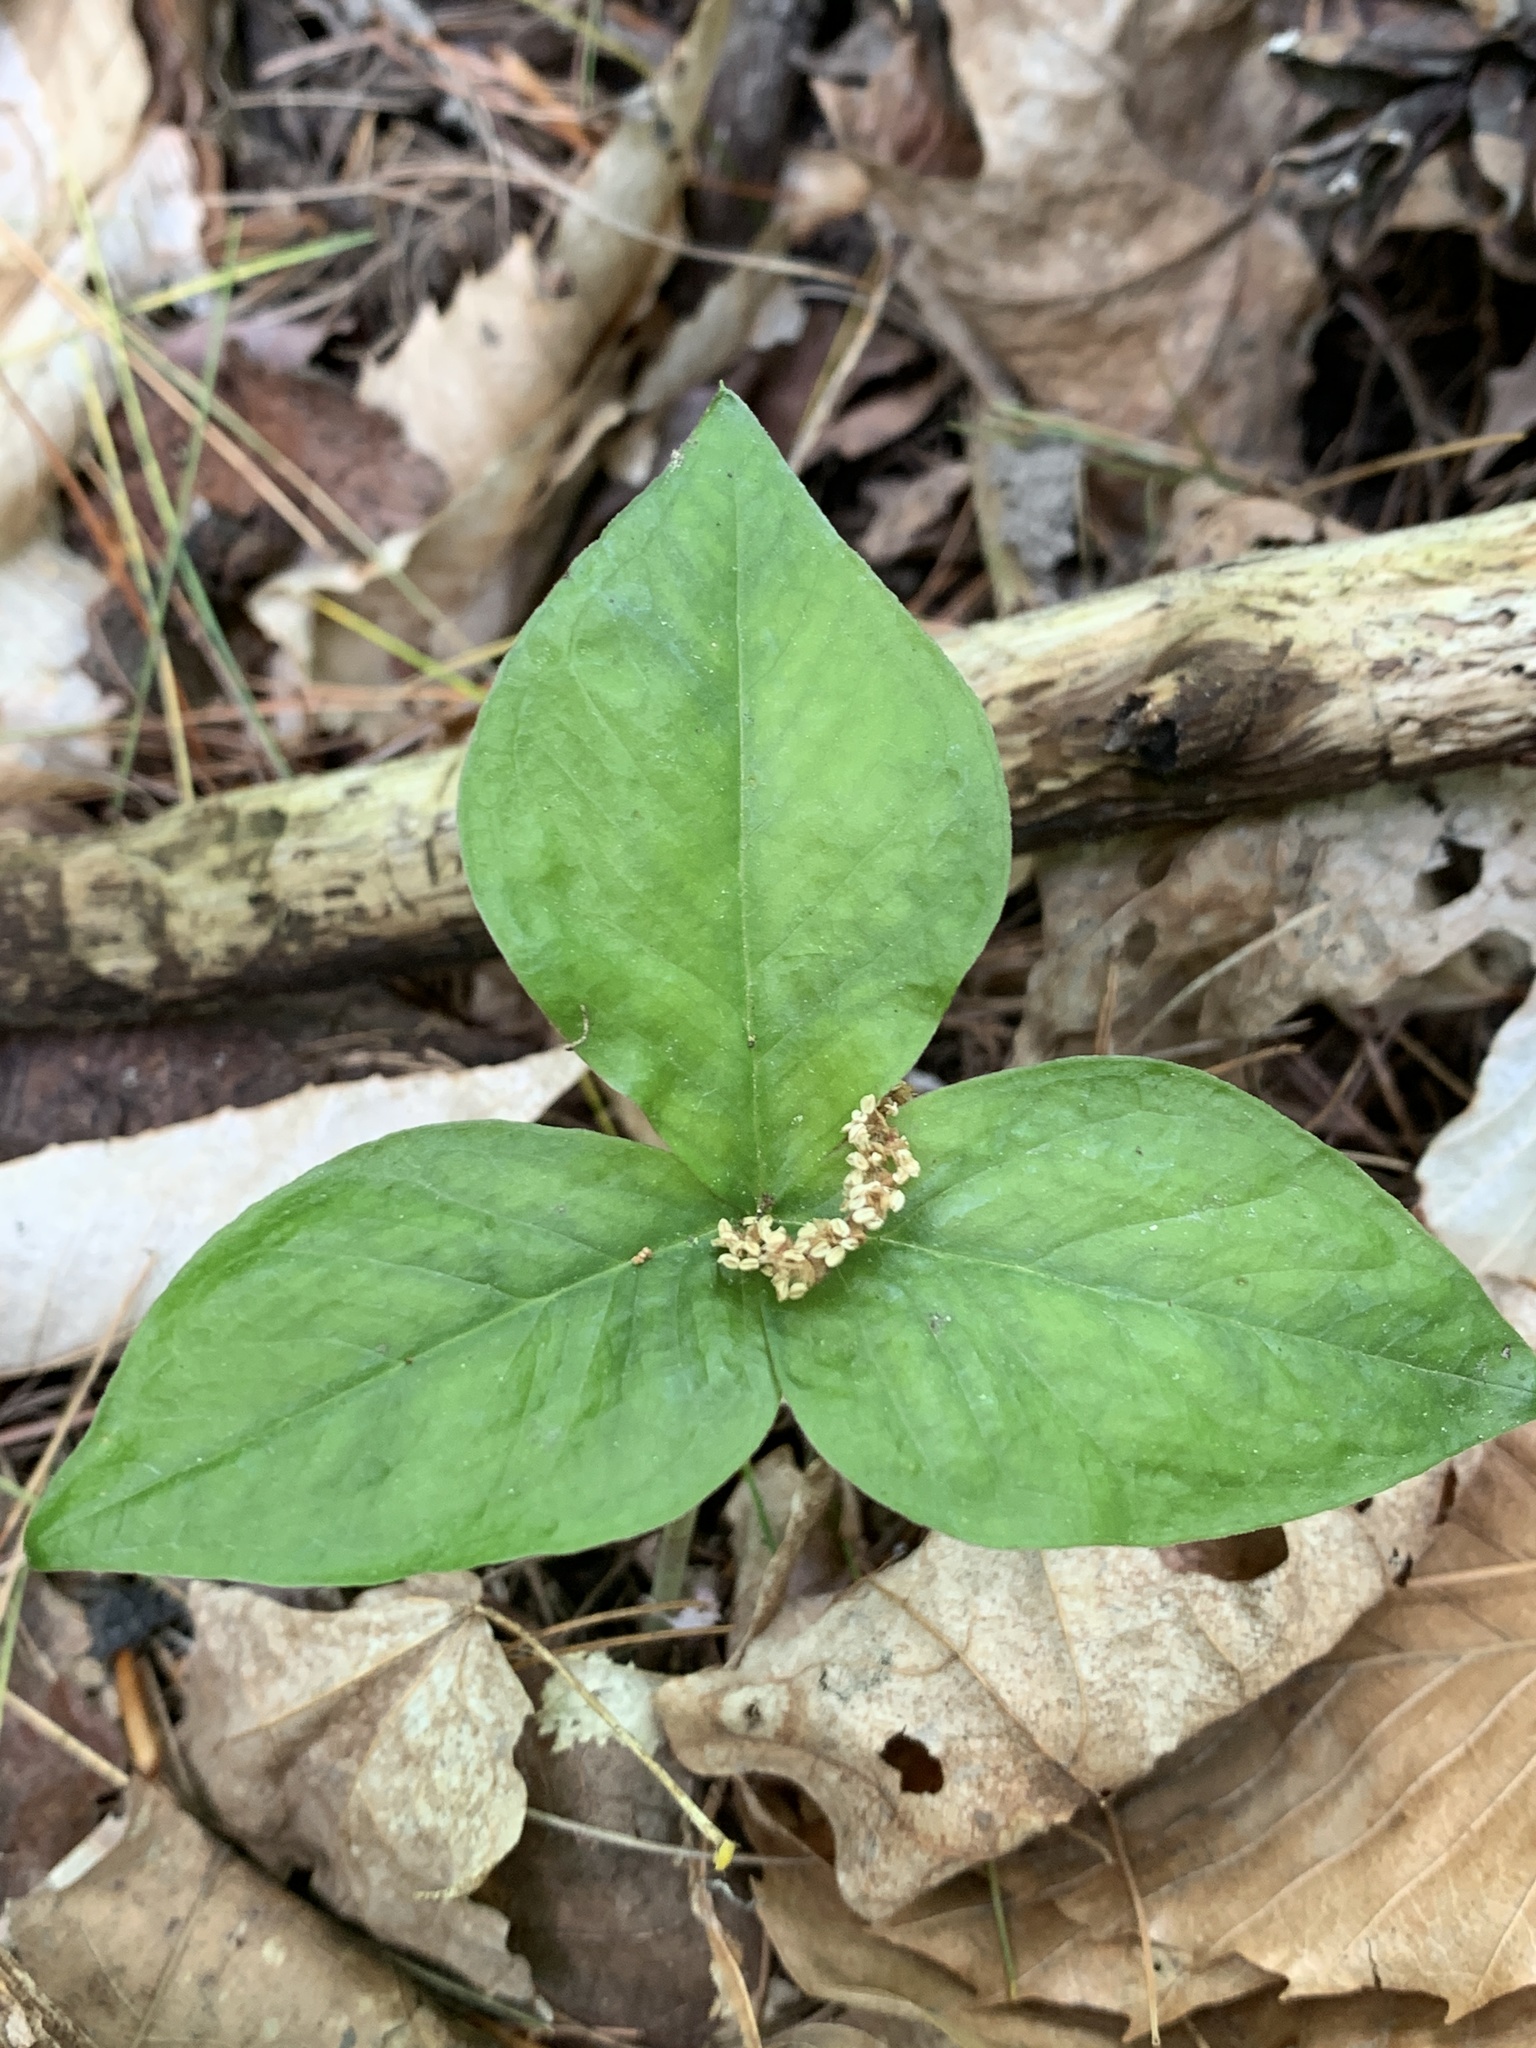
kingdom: Plantae
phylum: Tracheophyta
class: Liliopsida
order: Alismatales
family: Araceae
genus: Arisaema
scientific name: Arisaema triphyllum
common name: Jack-in-the-pulpit
